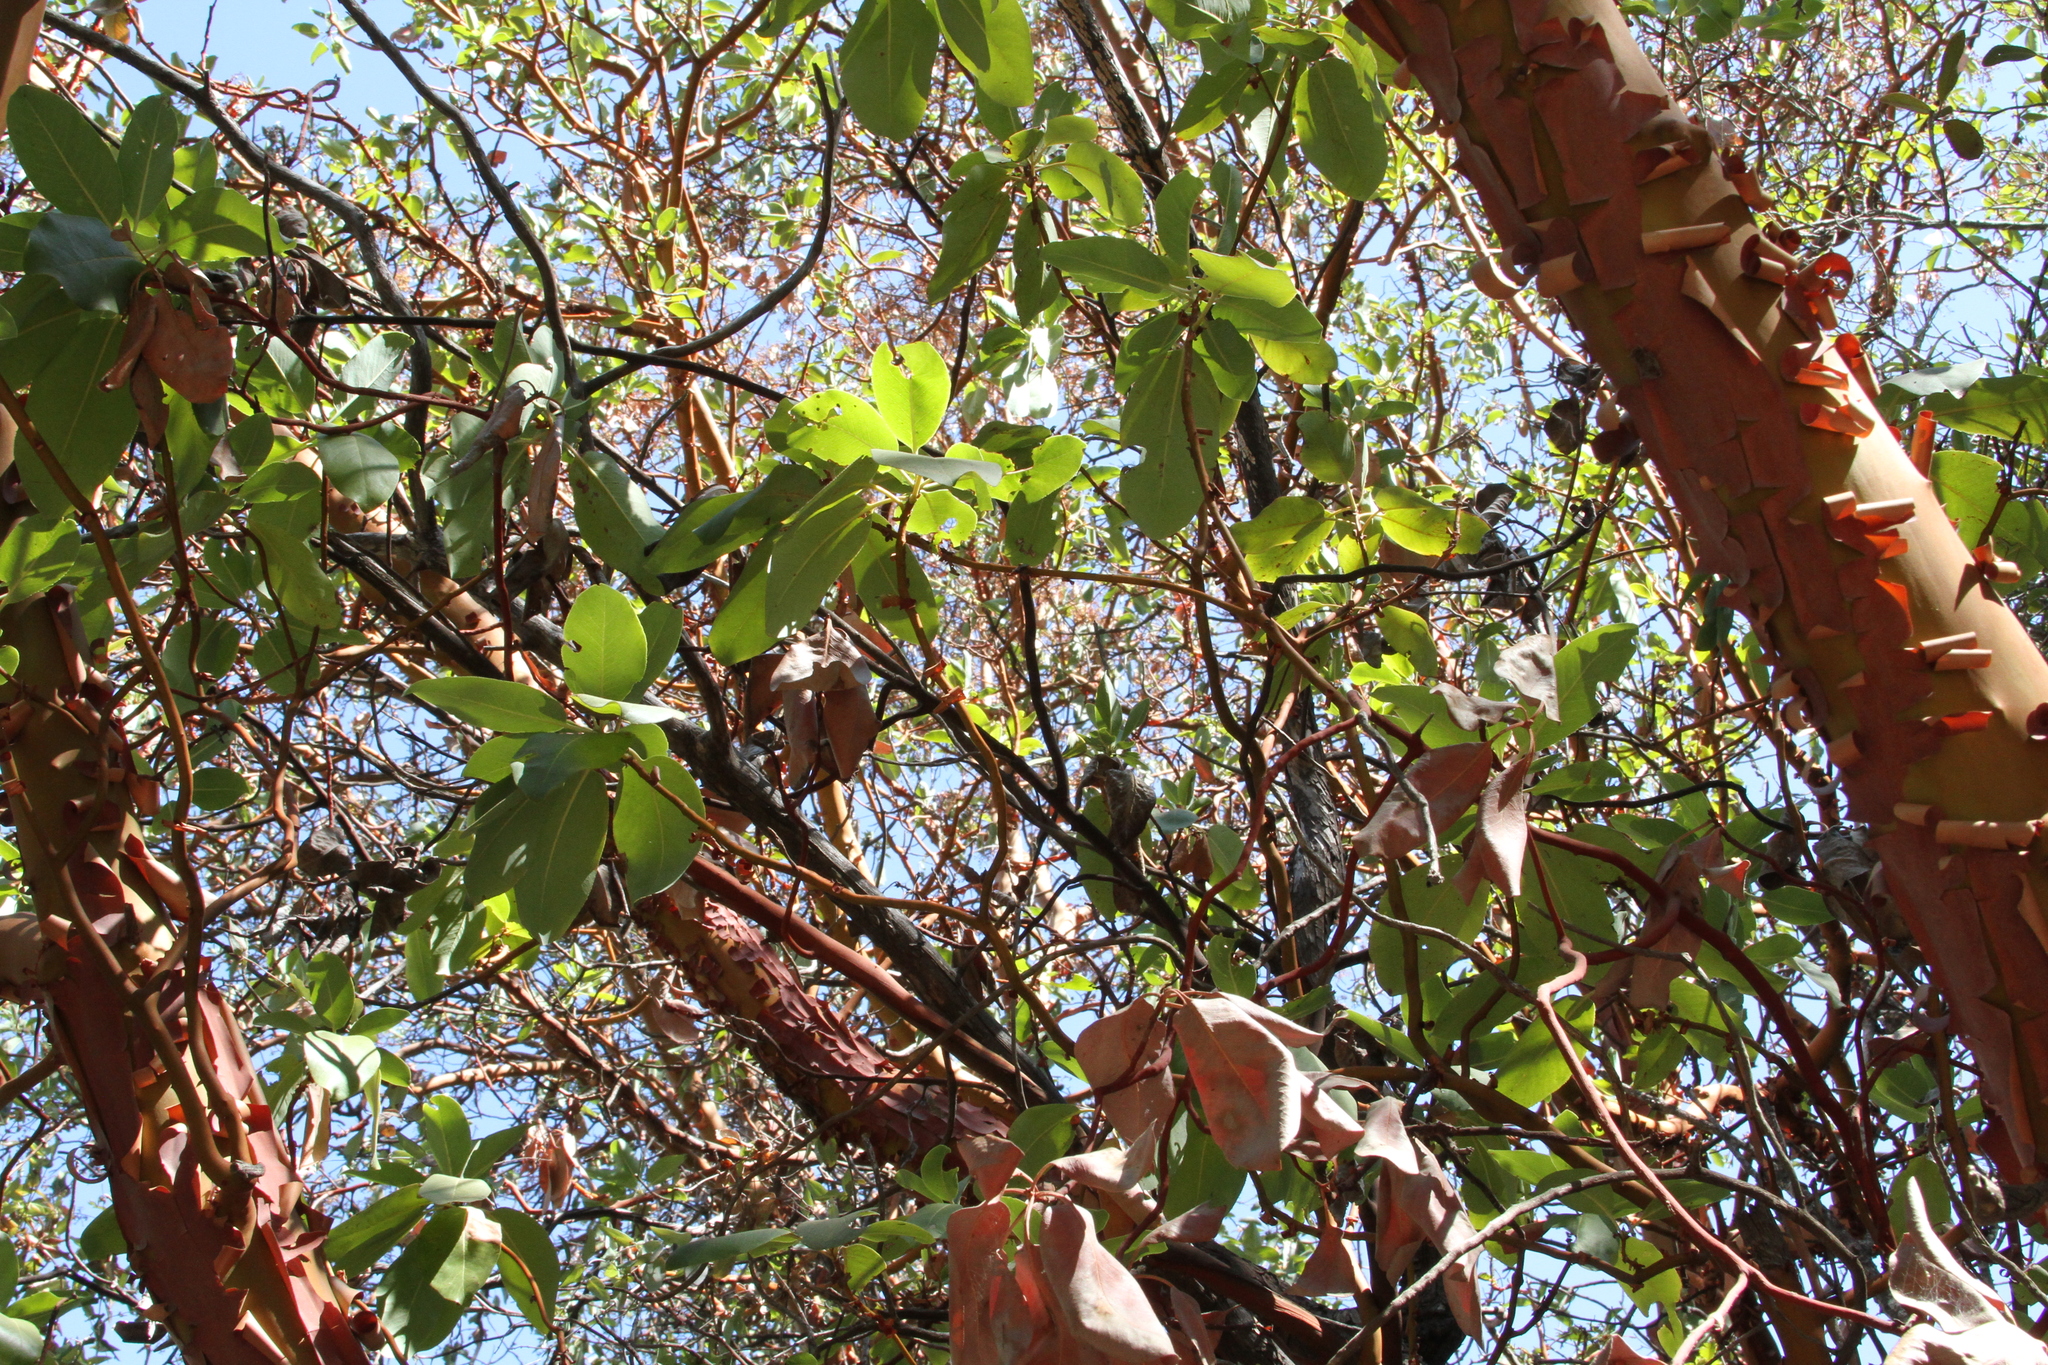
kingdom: Plantae
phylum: Tracheophyta
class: Magnoliopsida
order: Ericales
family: Ericaceae
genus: Arbutus
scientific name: Arbutus menziesii
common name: Pacific madrone
